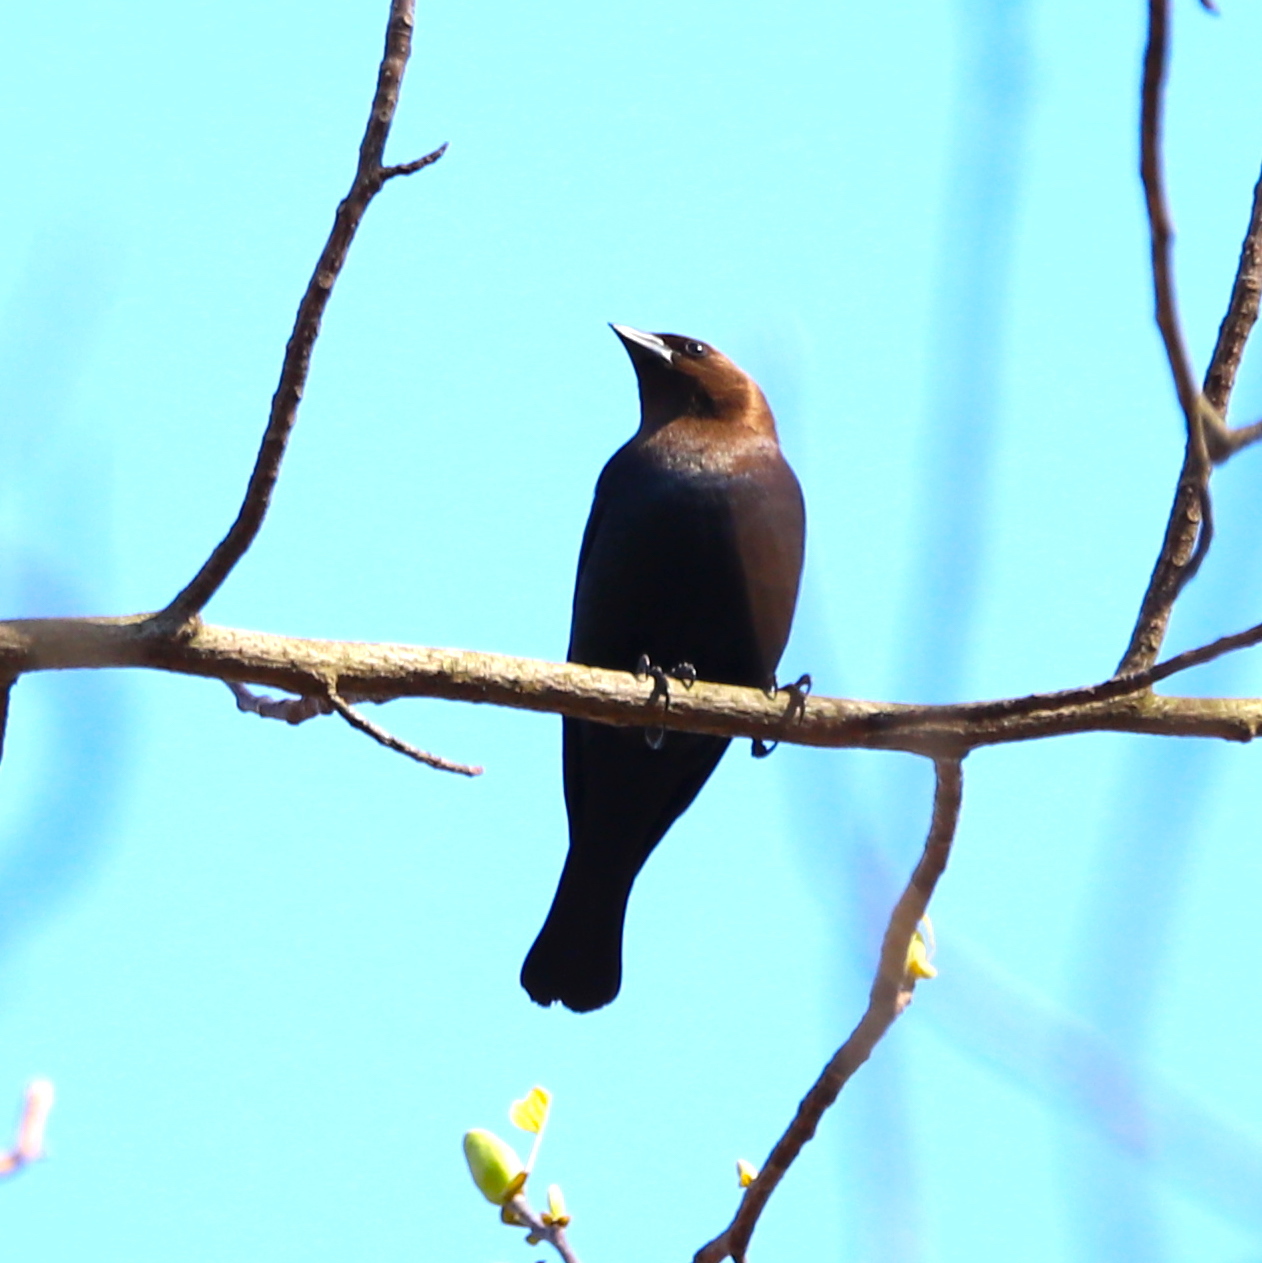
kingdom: Animalia
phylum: Chordata
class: Aves
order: Passeriformes
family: Icteridae
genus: Molothrus
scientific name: Molothrus ater
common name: Brown-headed cowbird
